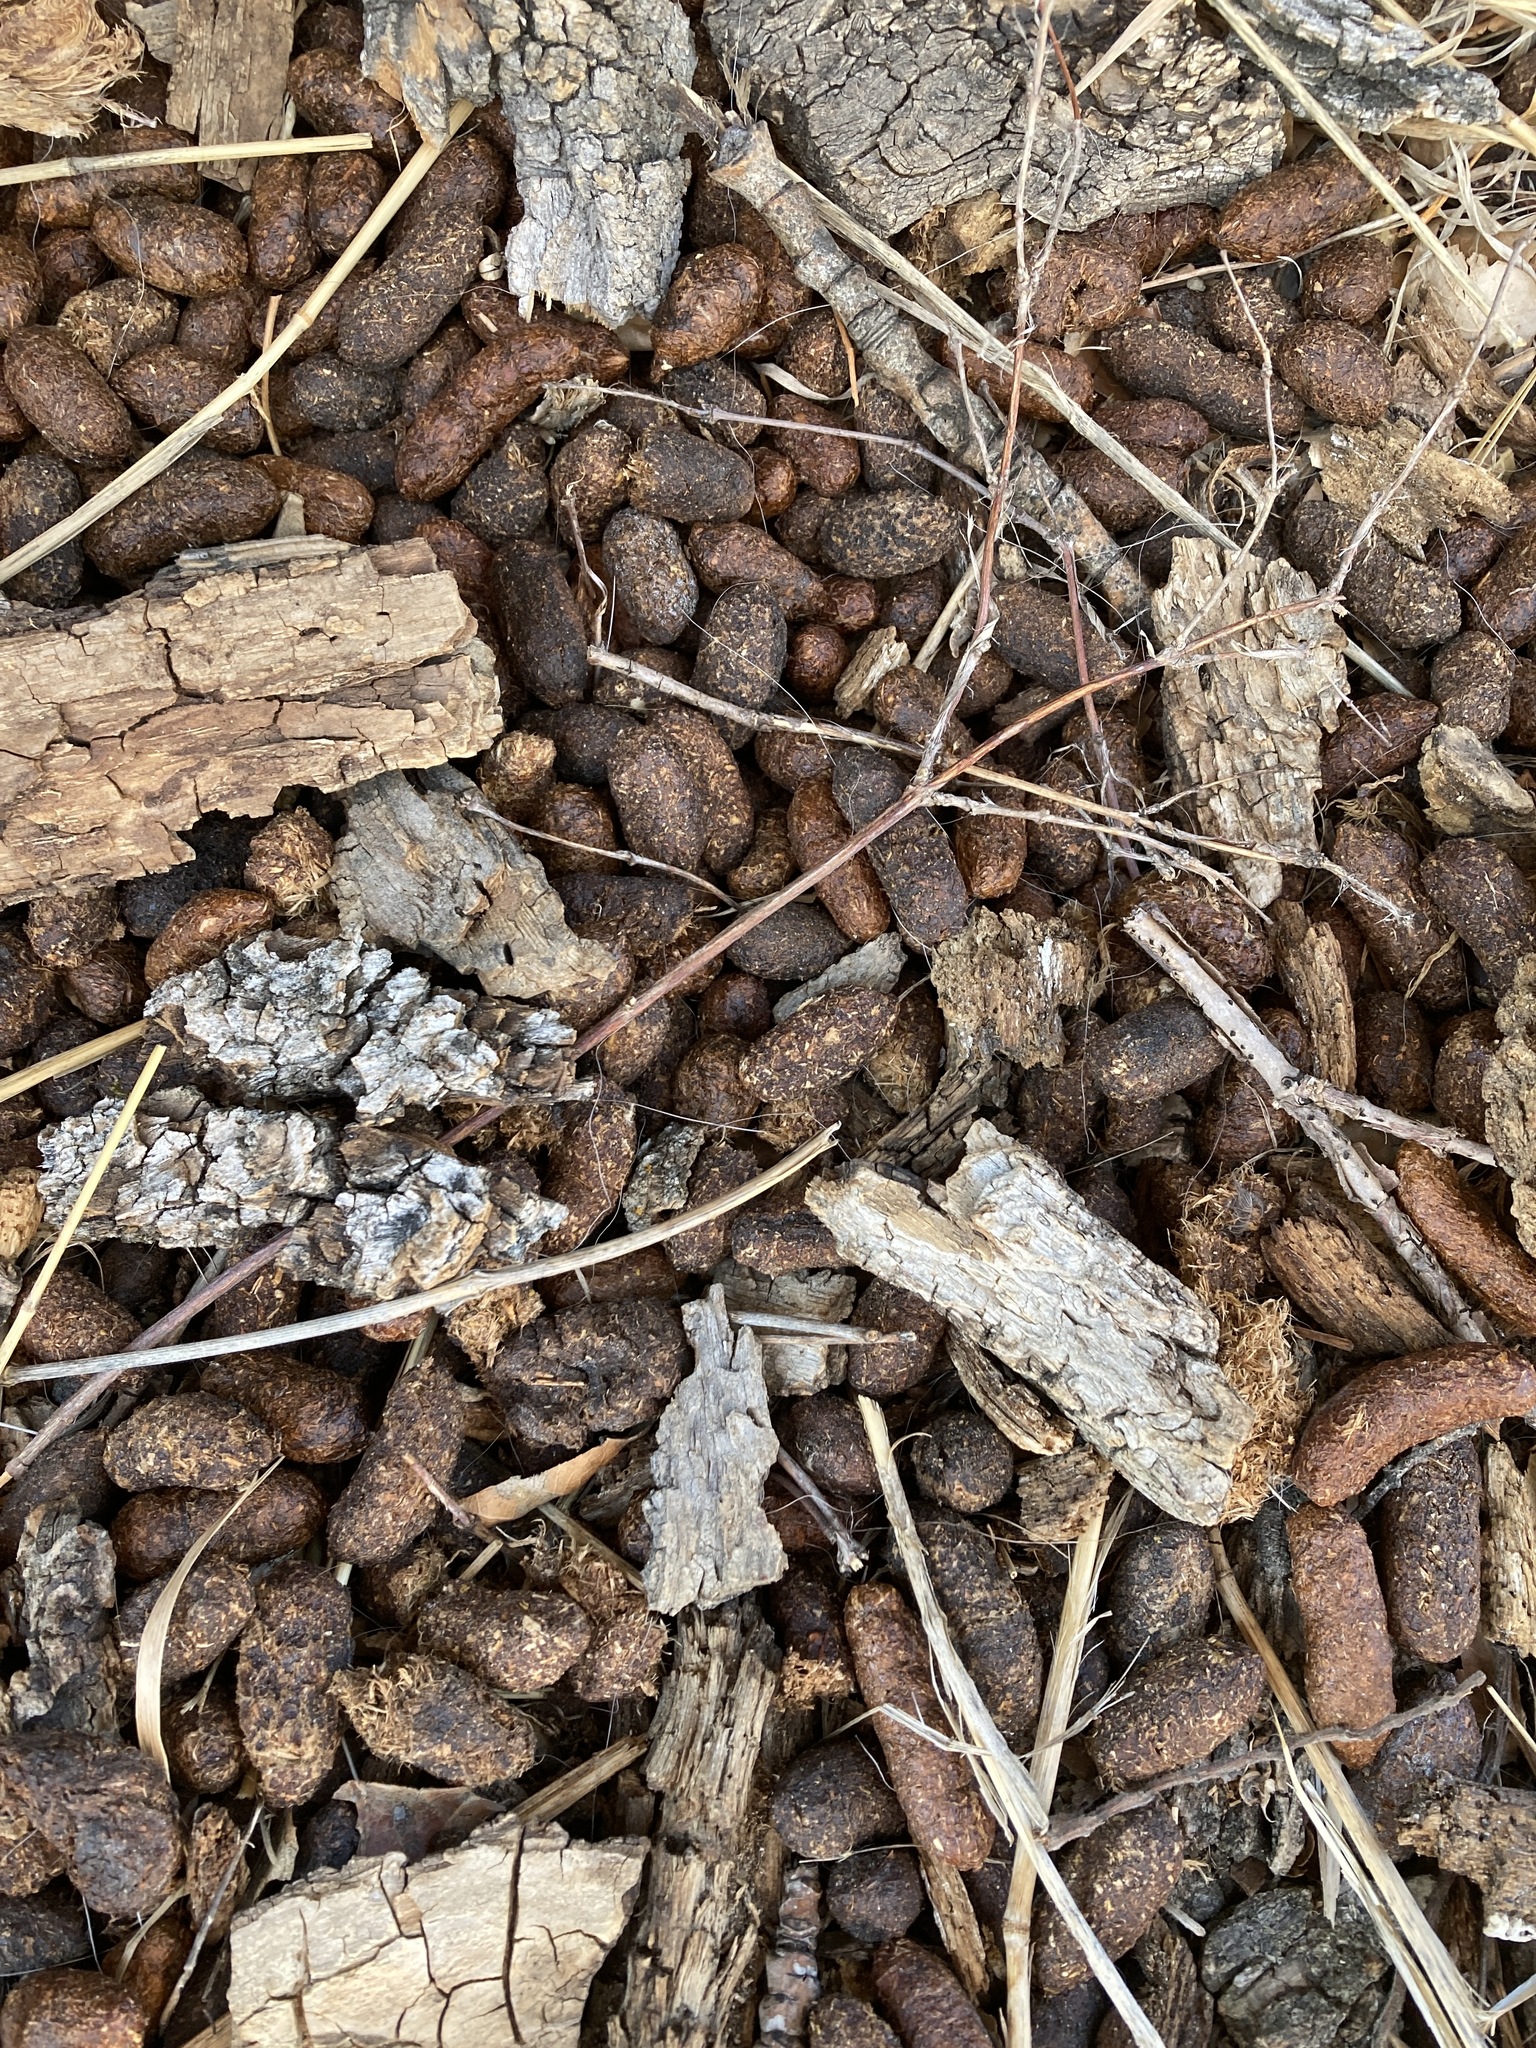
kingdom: Animalia
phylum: Chordata
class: Mammalia
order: Rodentia
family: Erethizontidae
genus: Erethizon
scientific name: Erethizon dorsatus
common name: North american porcupine
